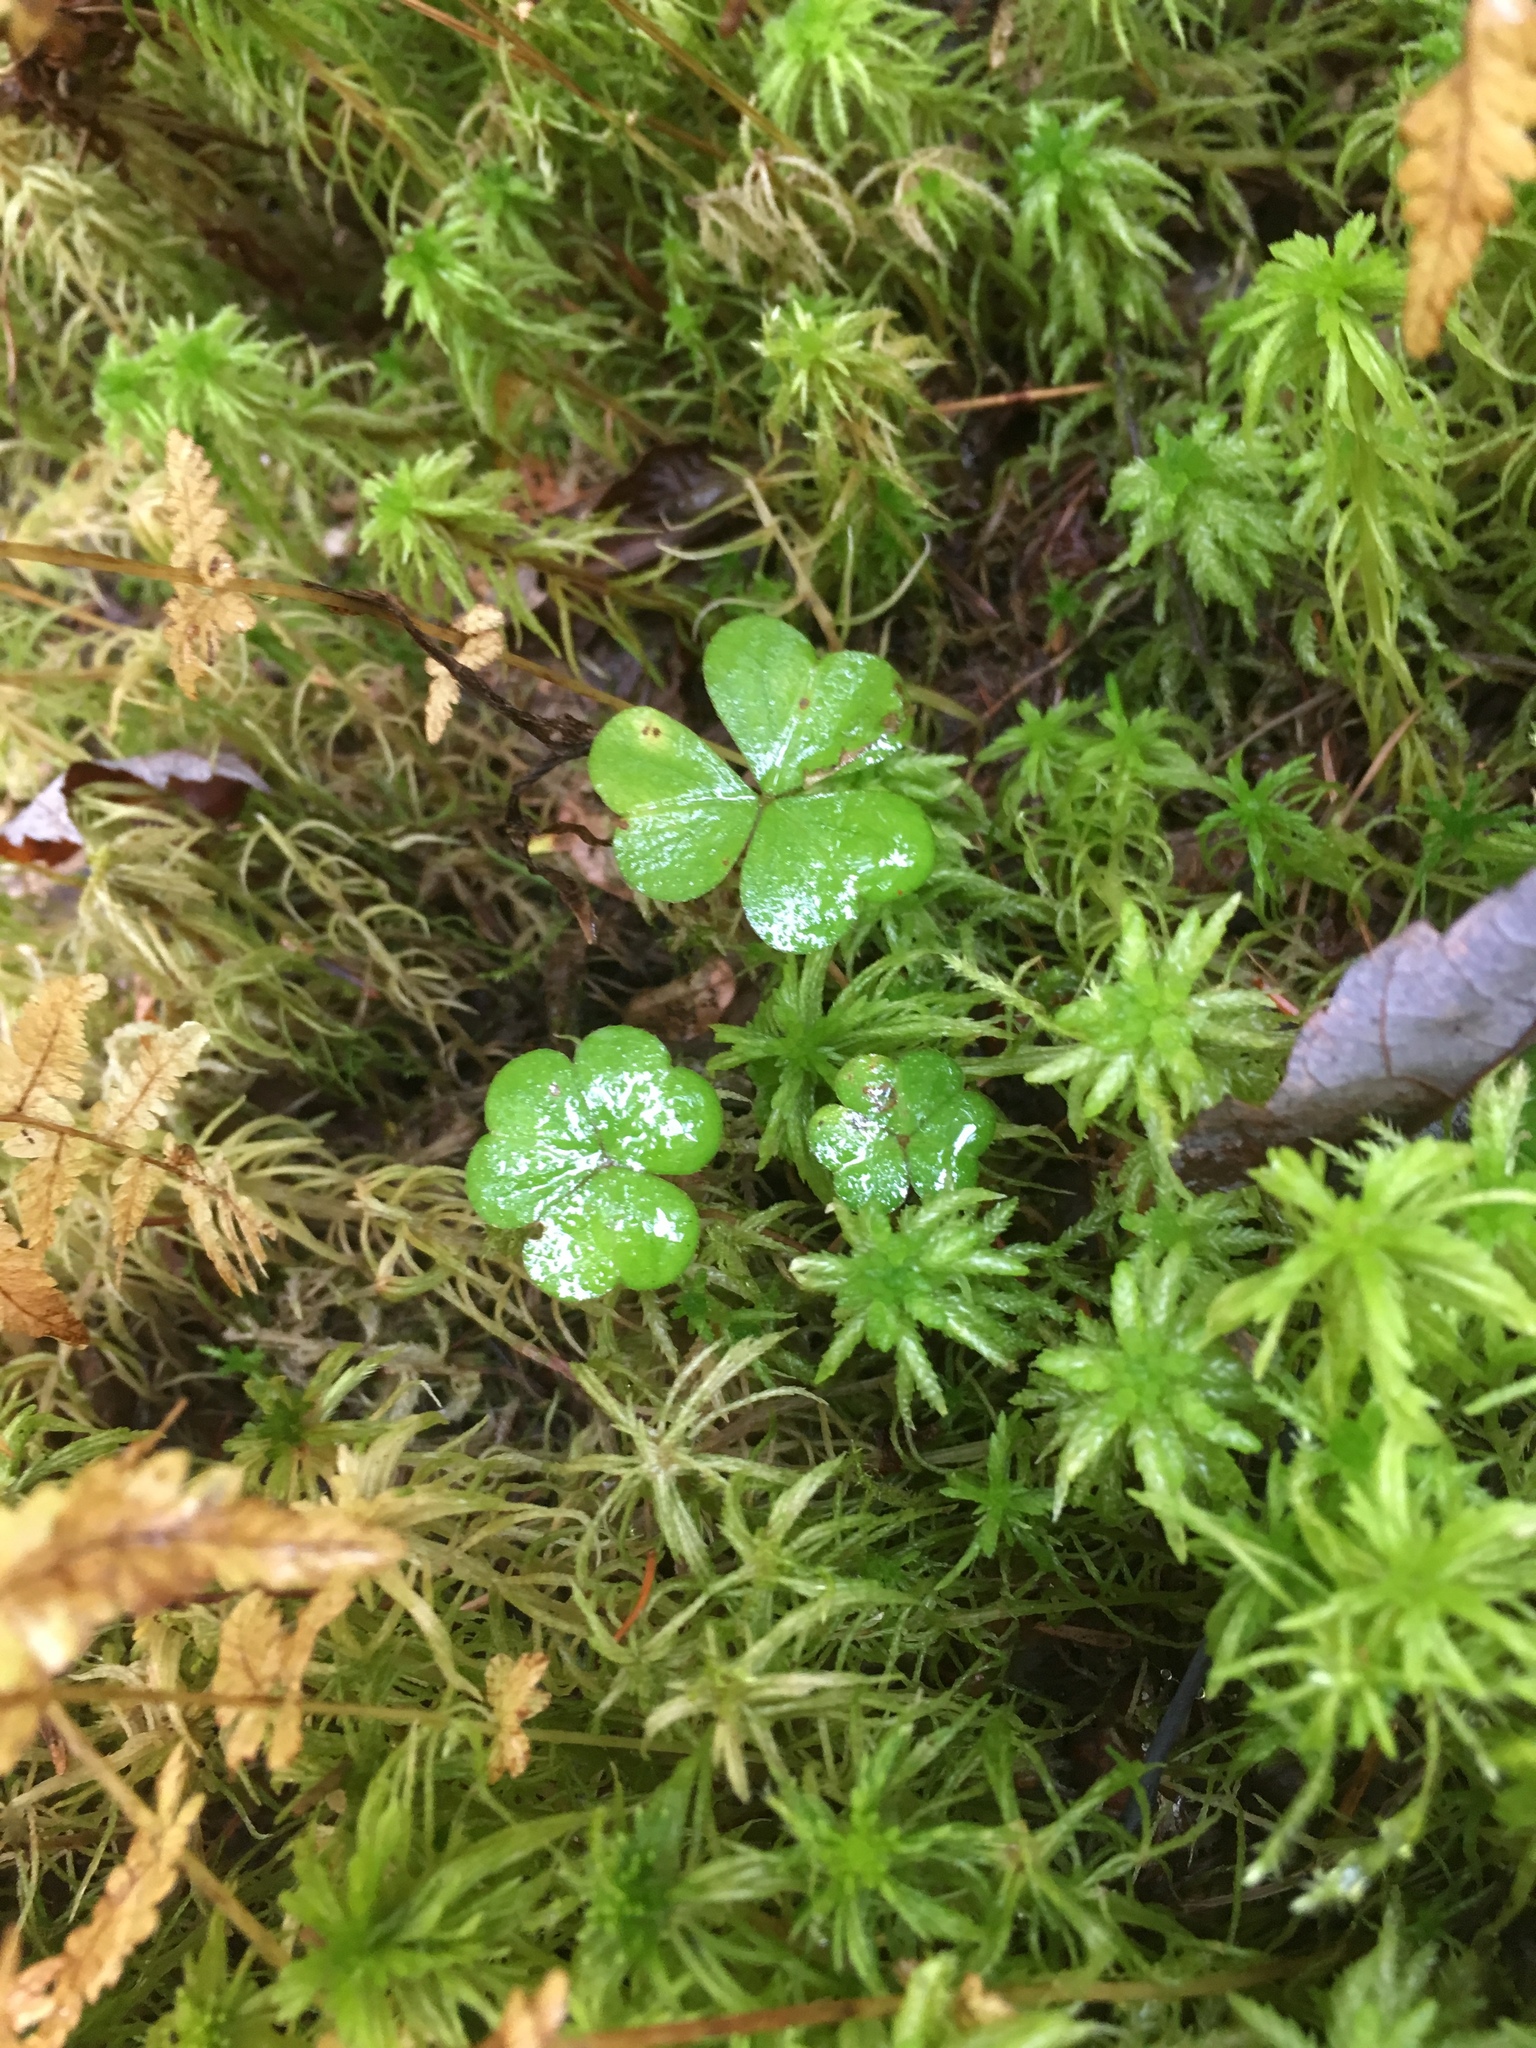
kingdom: Plantae
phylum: Tracheophyta
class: Magnoliopsida
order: Oxalidales
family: Oxalidaceae
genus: Oxalis
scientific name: Oxalis montana
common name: American wood-sorrel
